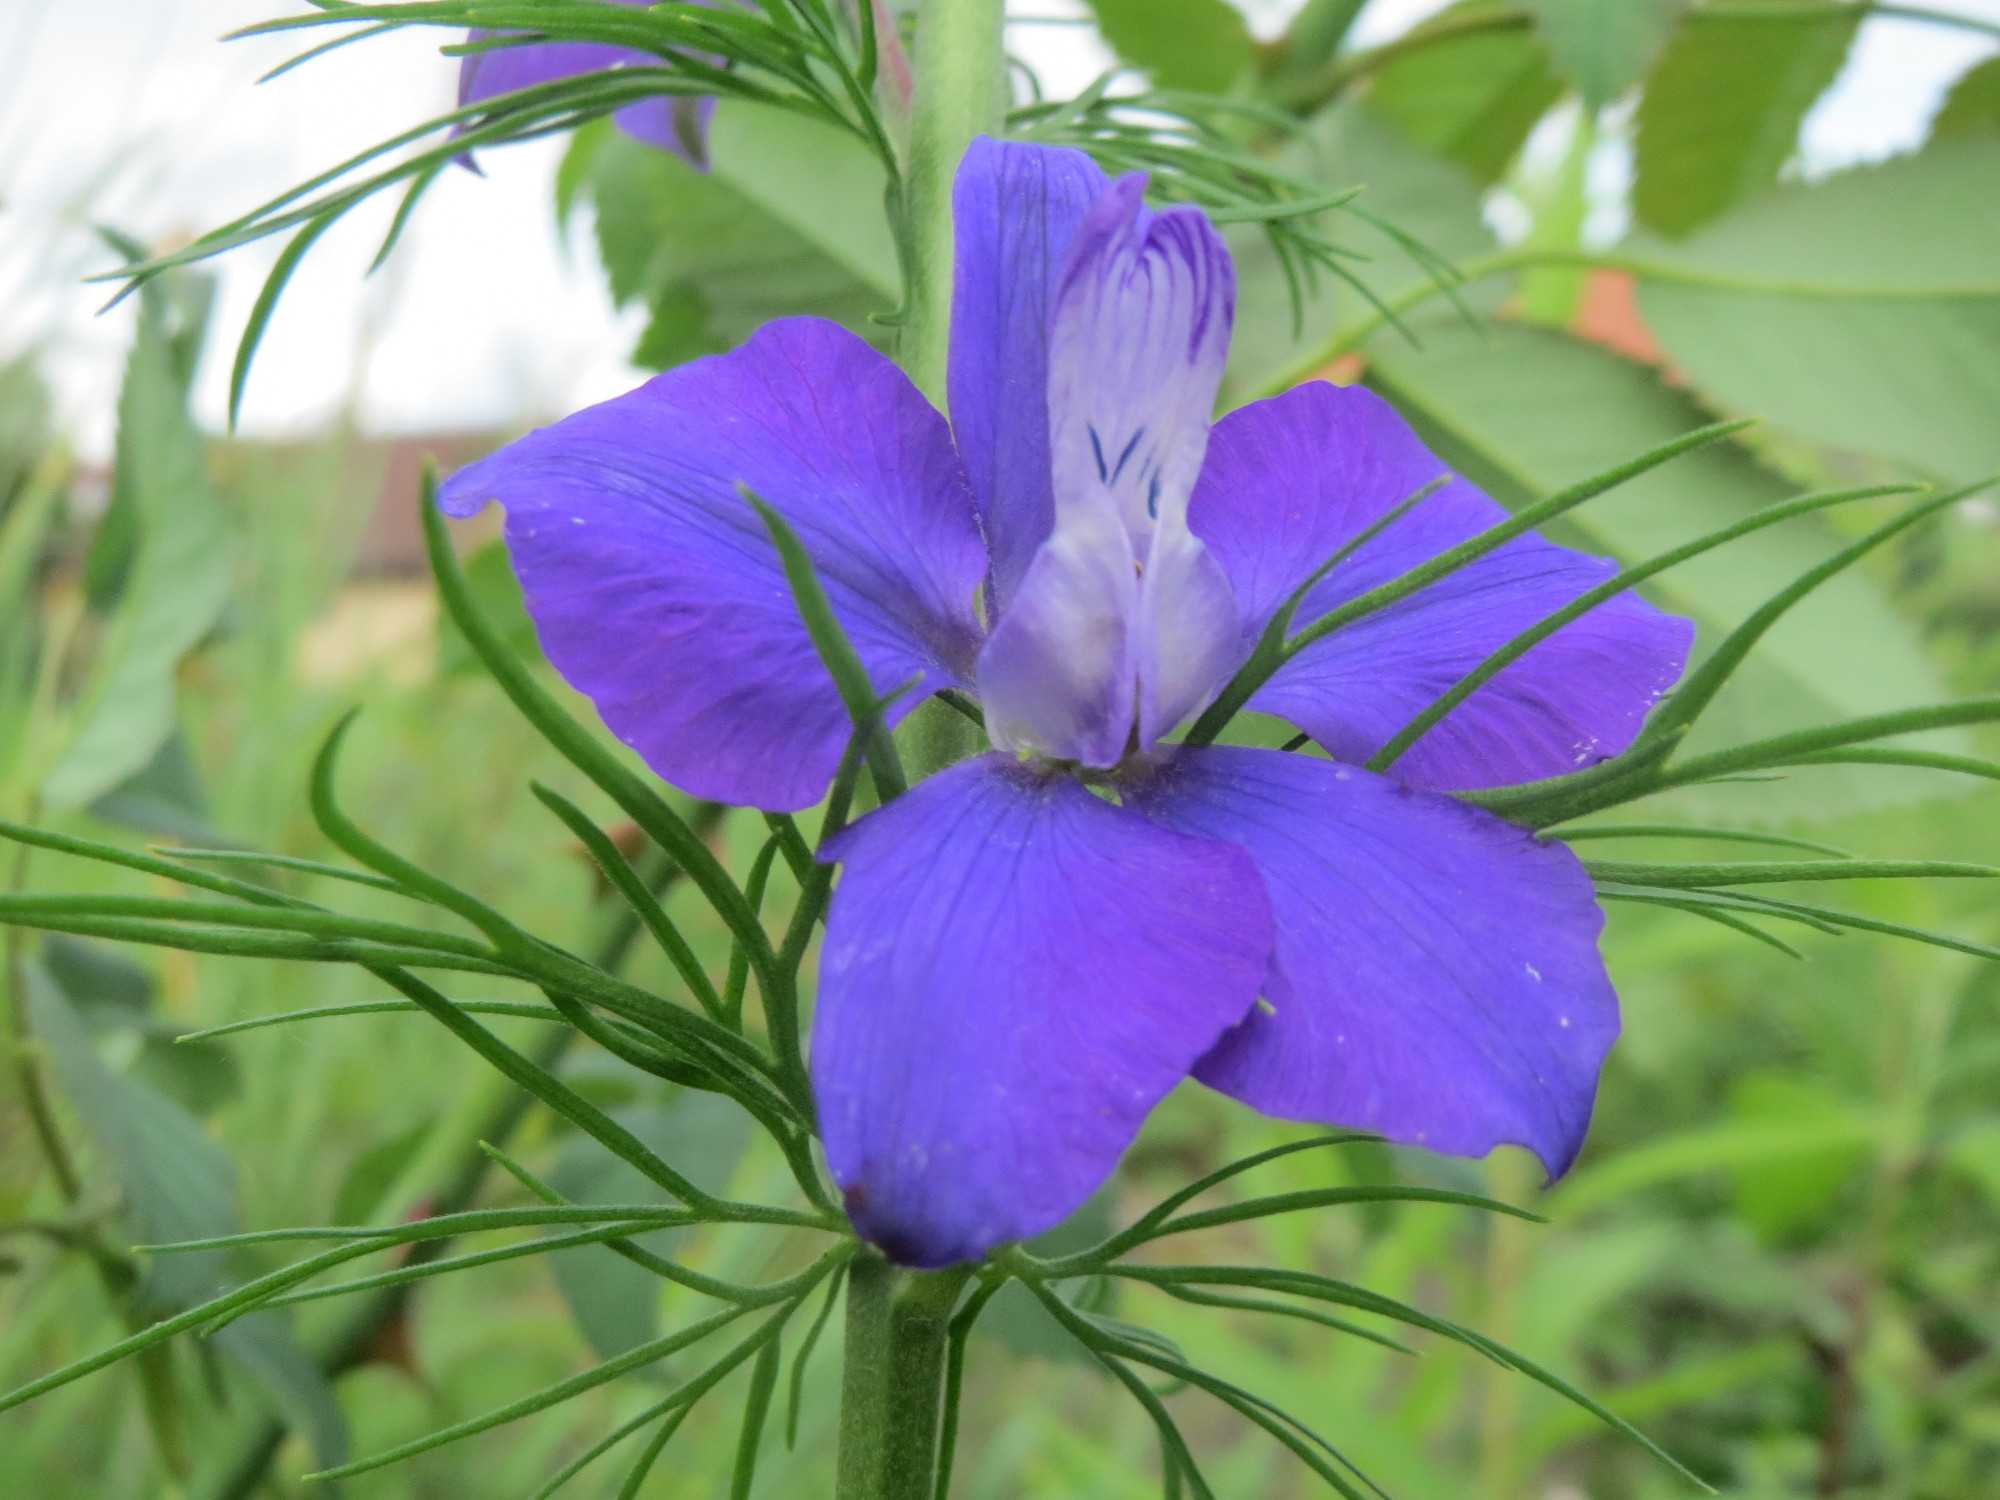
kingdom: Plantae
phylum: Tracheophyta
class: Magnoliopsida
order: Ranunculales
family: Ranunculaceae
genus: Delphinium
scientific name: Delphinium ajacis
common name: Doubtful knight's-spur
